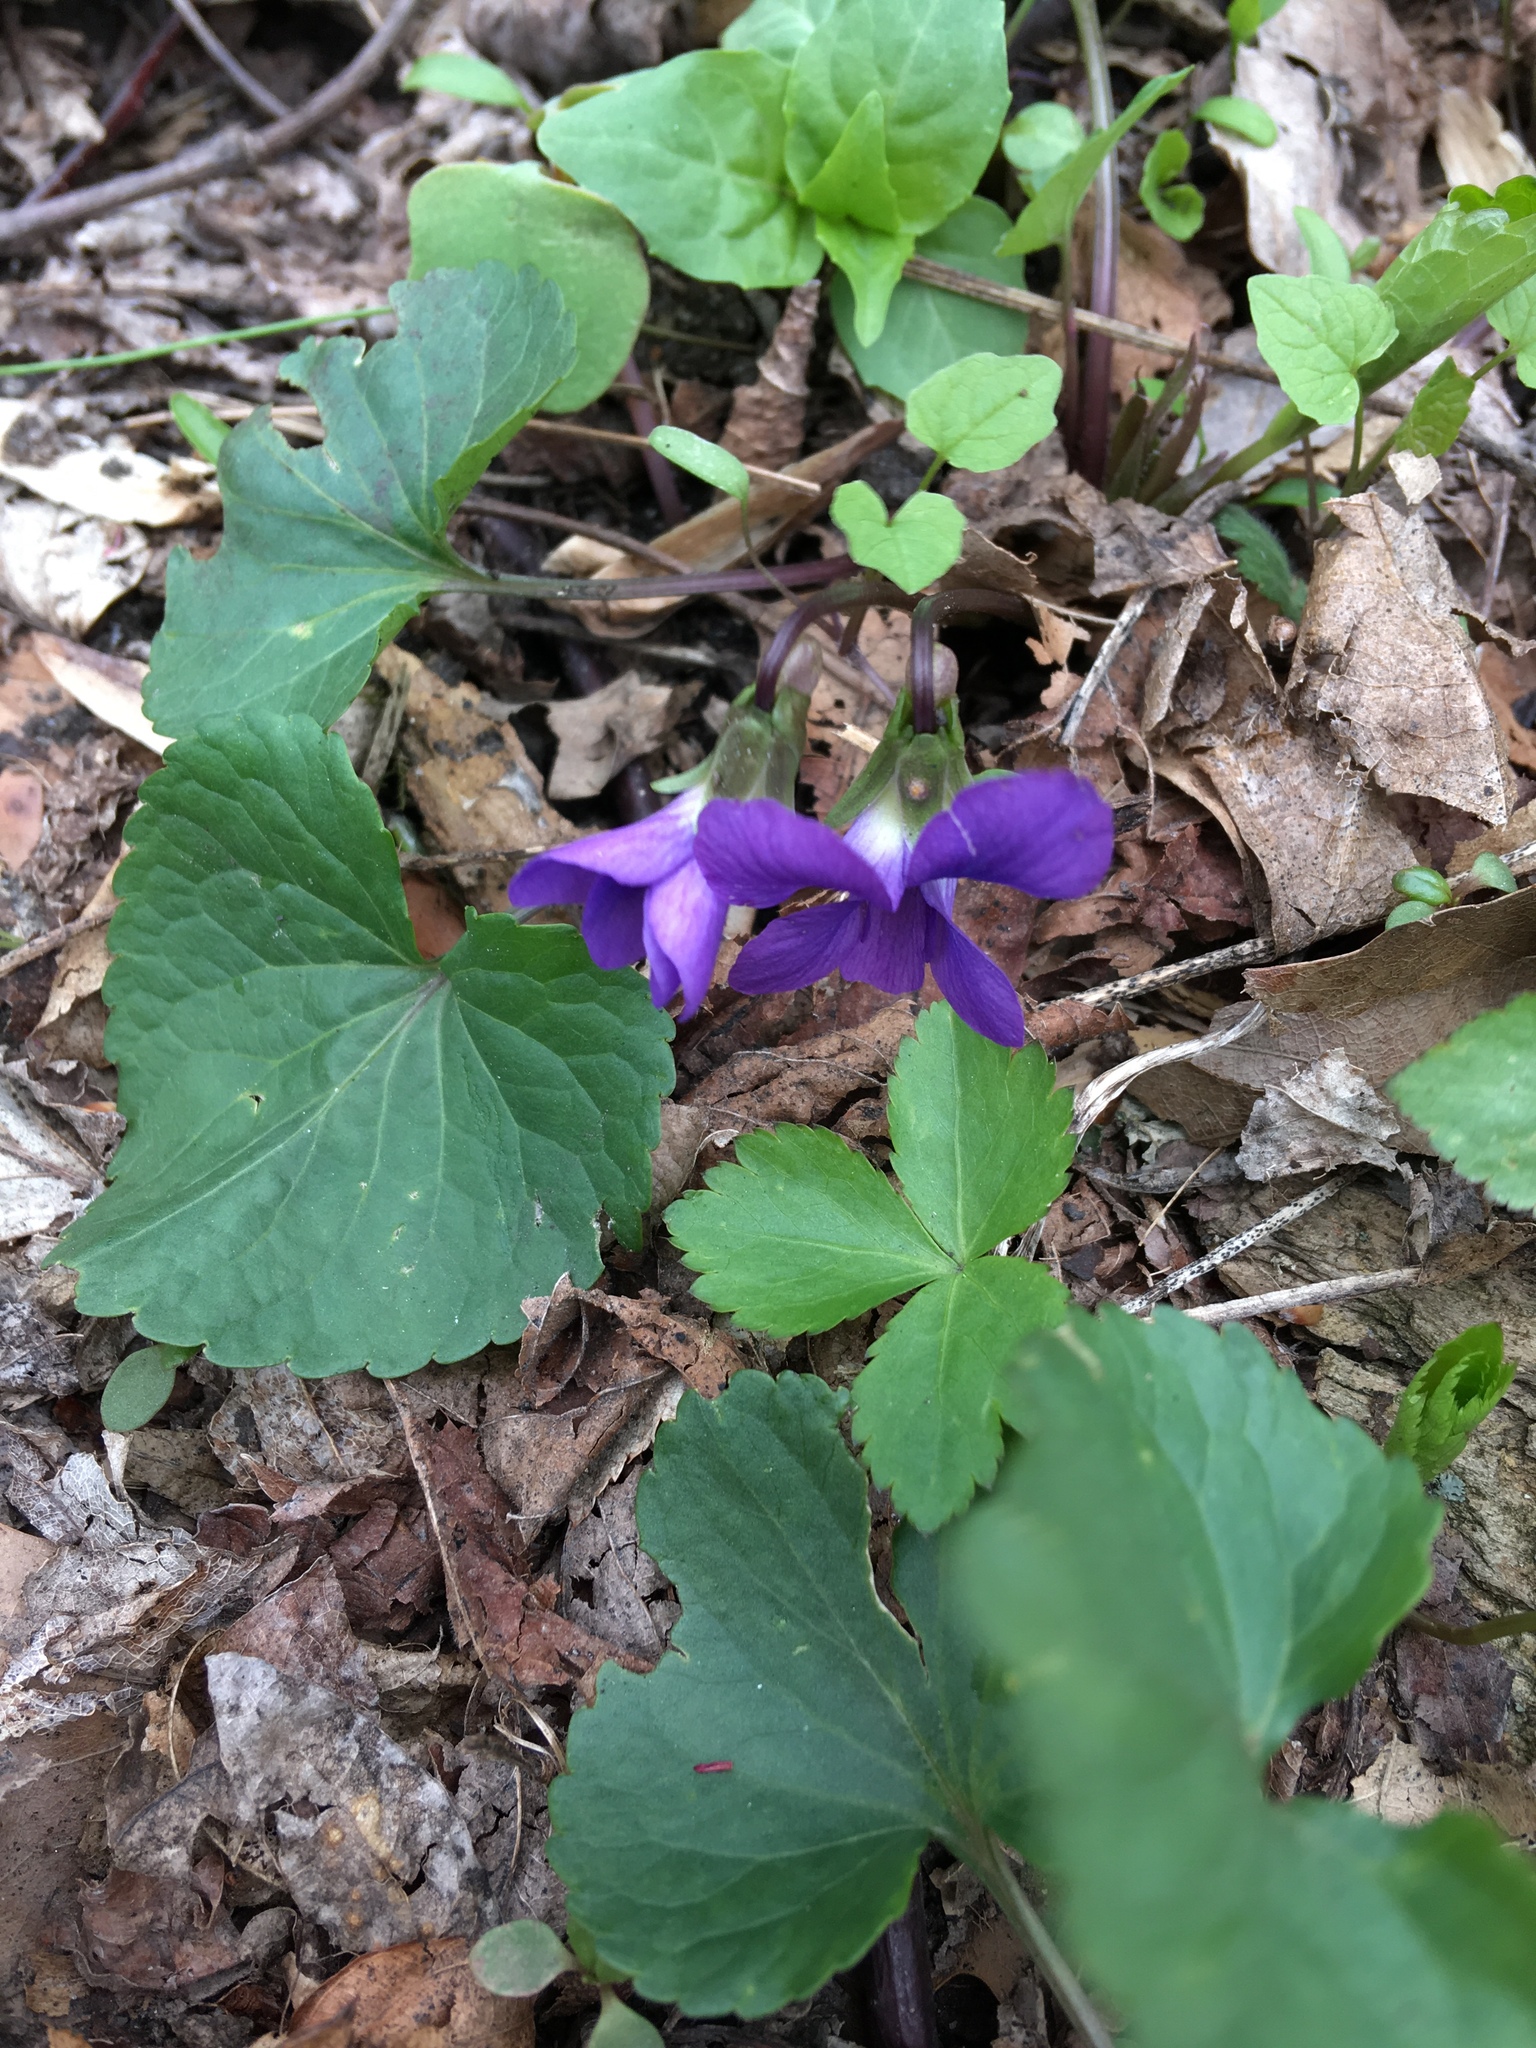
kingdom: Plantae
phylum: Tracheophyta
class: Magnoliopsida
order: Malpighiales
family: Violaceae
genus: Viola
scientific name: Viola sororia
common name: Dooryard violet
